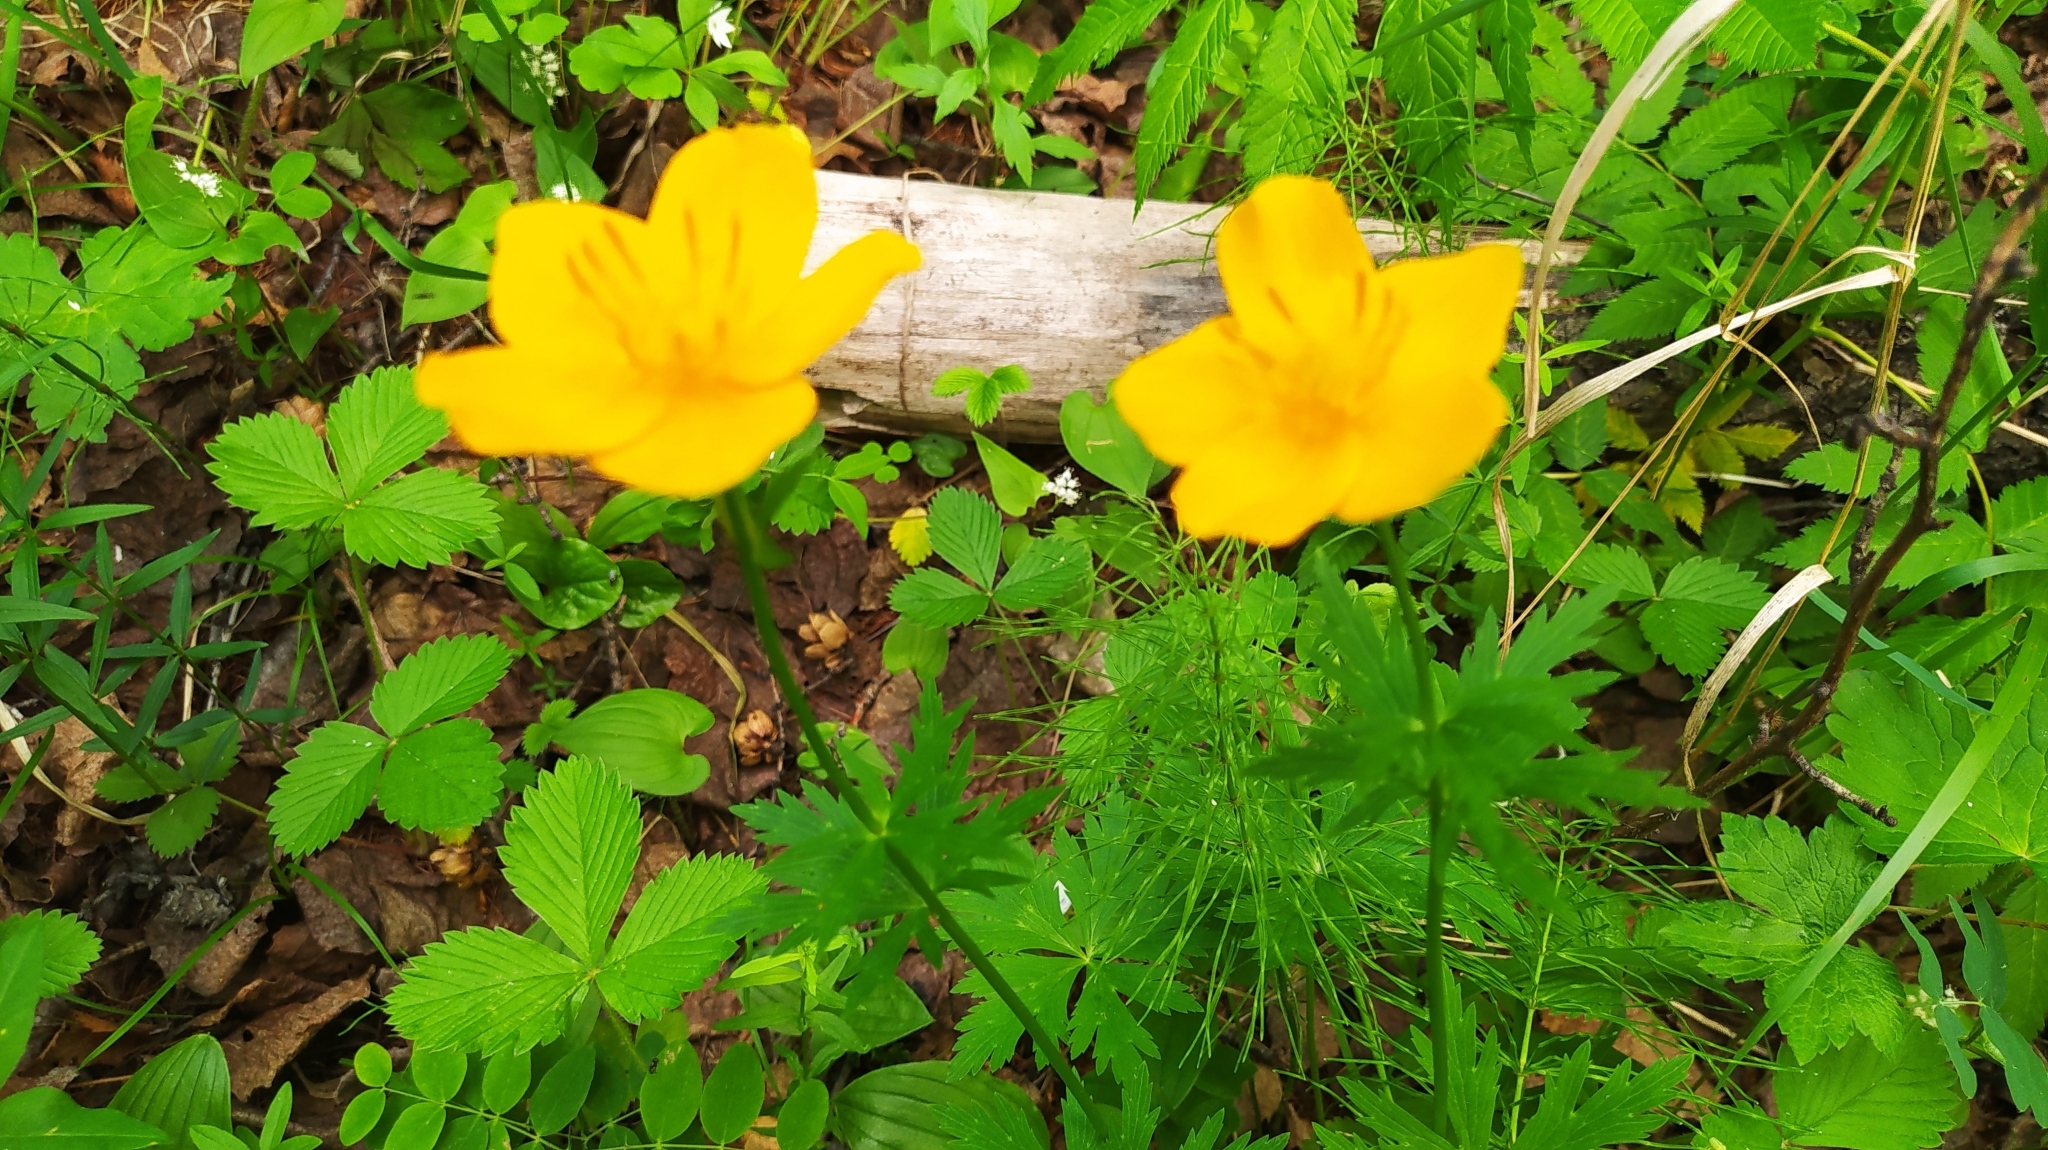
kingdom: Plantae
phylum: Tracheophyta
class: Magnoliopsida
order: Ranunculales
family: Ranunculaceae
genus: Trollius
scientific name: Trollius vicarius
